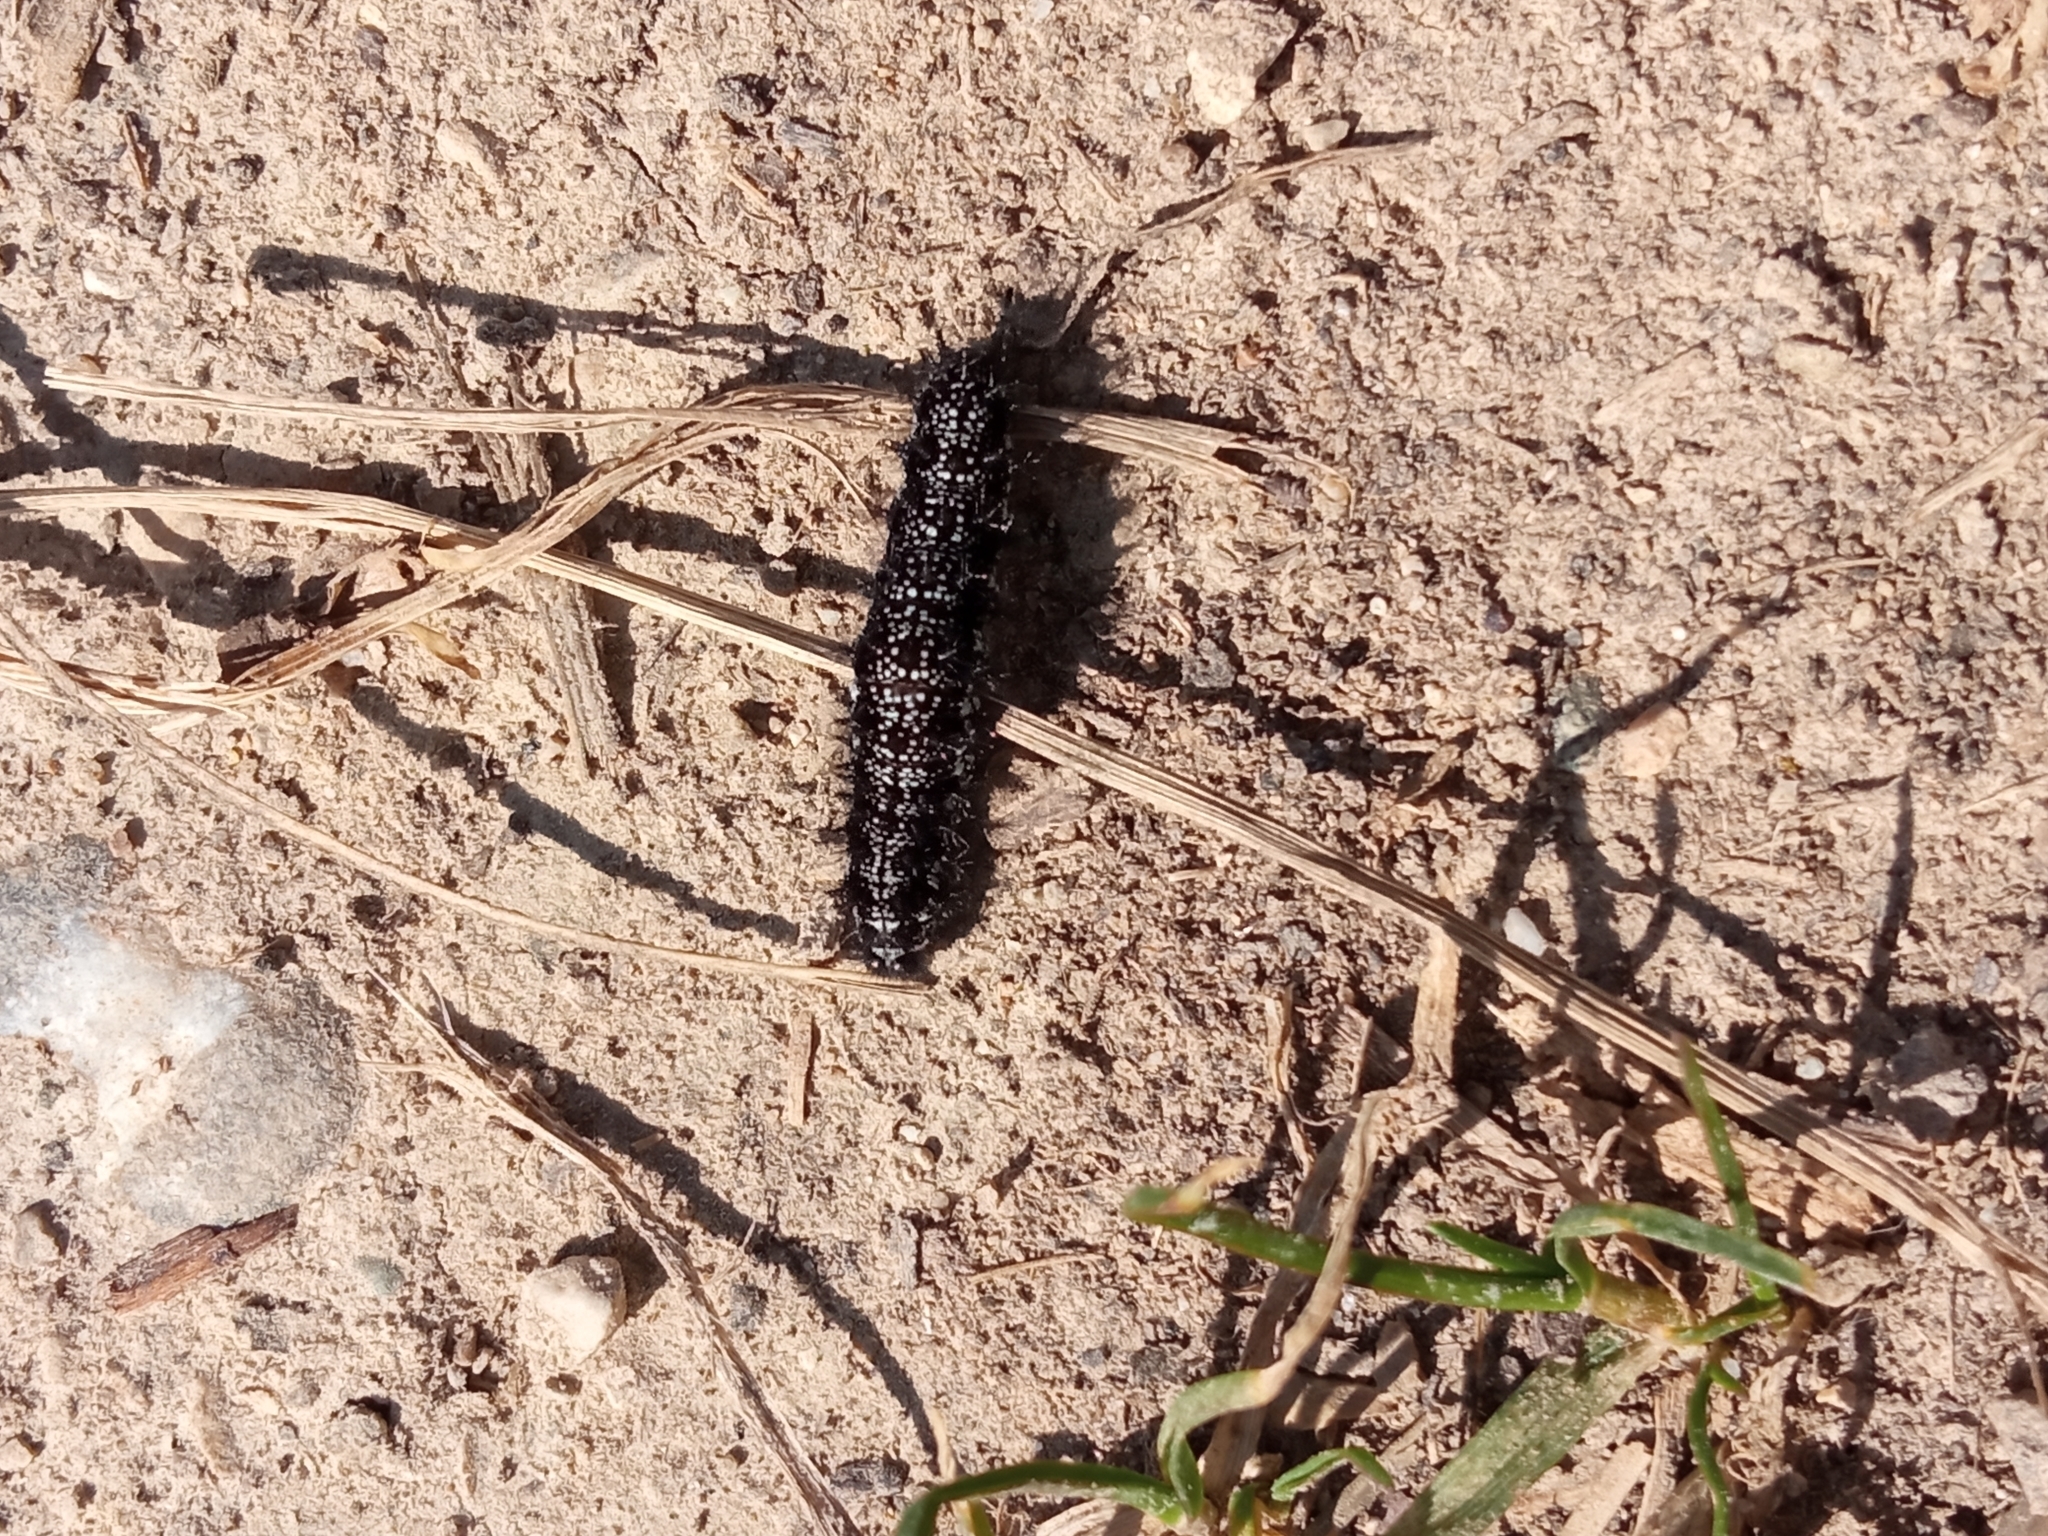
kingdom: Animalia
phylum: Arthropoda
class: Insecta
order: Lepidoptera
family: Nymphalidae
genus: Euphydryas
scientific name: Euphydryas aurinia
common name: Marsh fritillary
